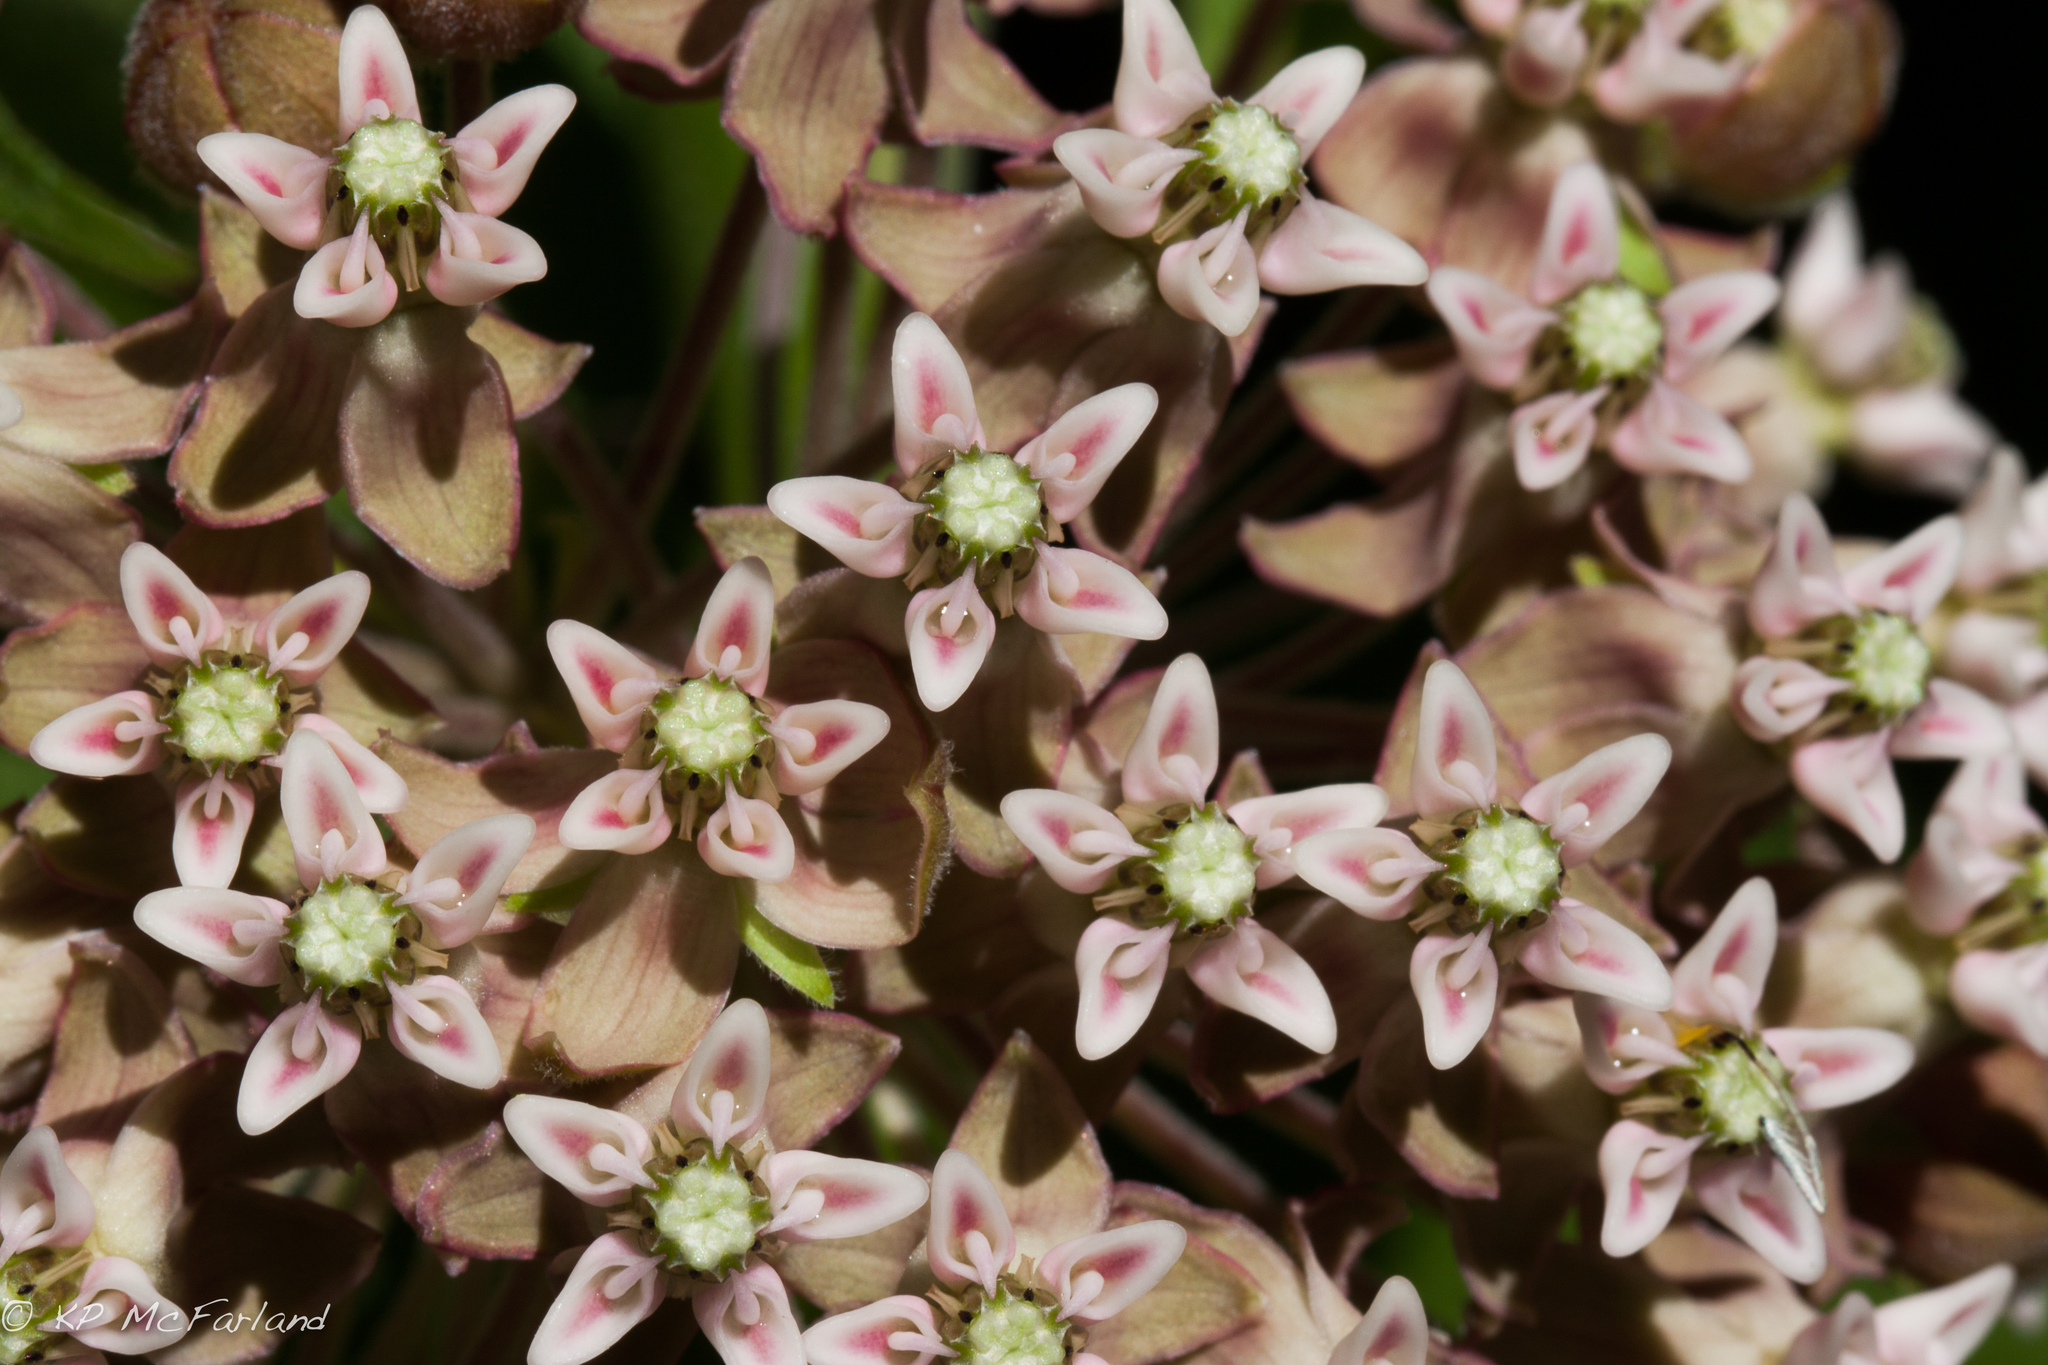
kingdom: Plantae
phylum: Tracheophyta
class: Magnoliopsida
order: Gentianales
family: Apocynaceae
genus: Asclepias
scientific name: Asclepias syriaca
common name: Common milkweed
